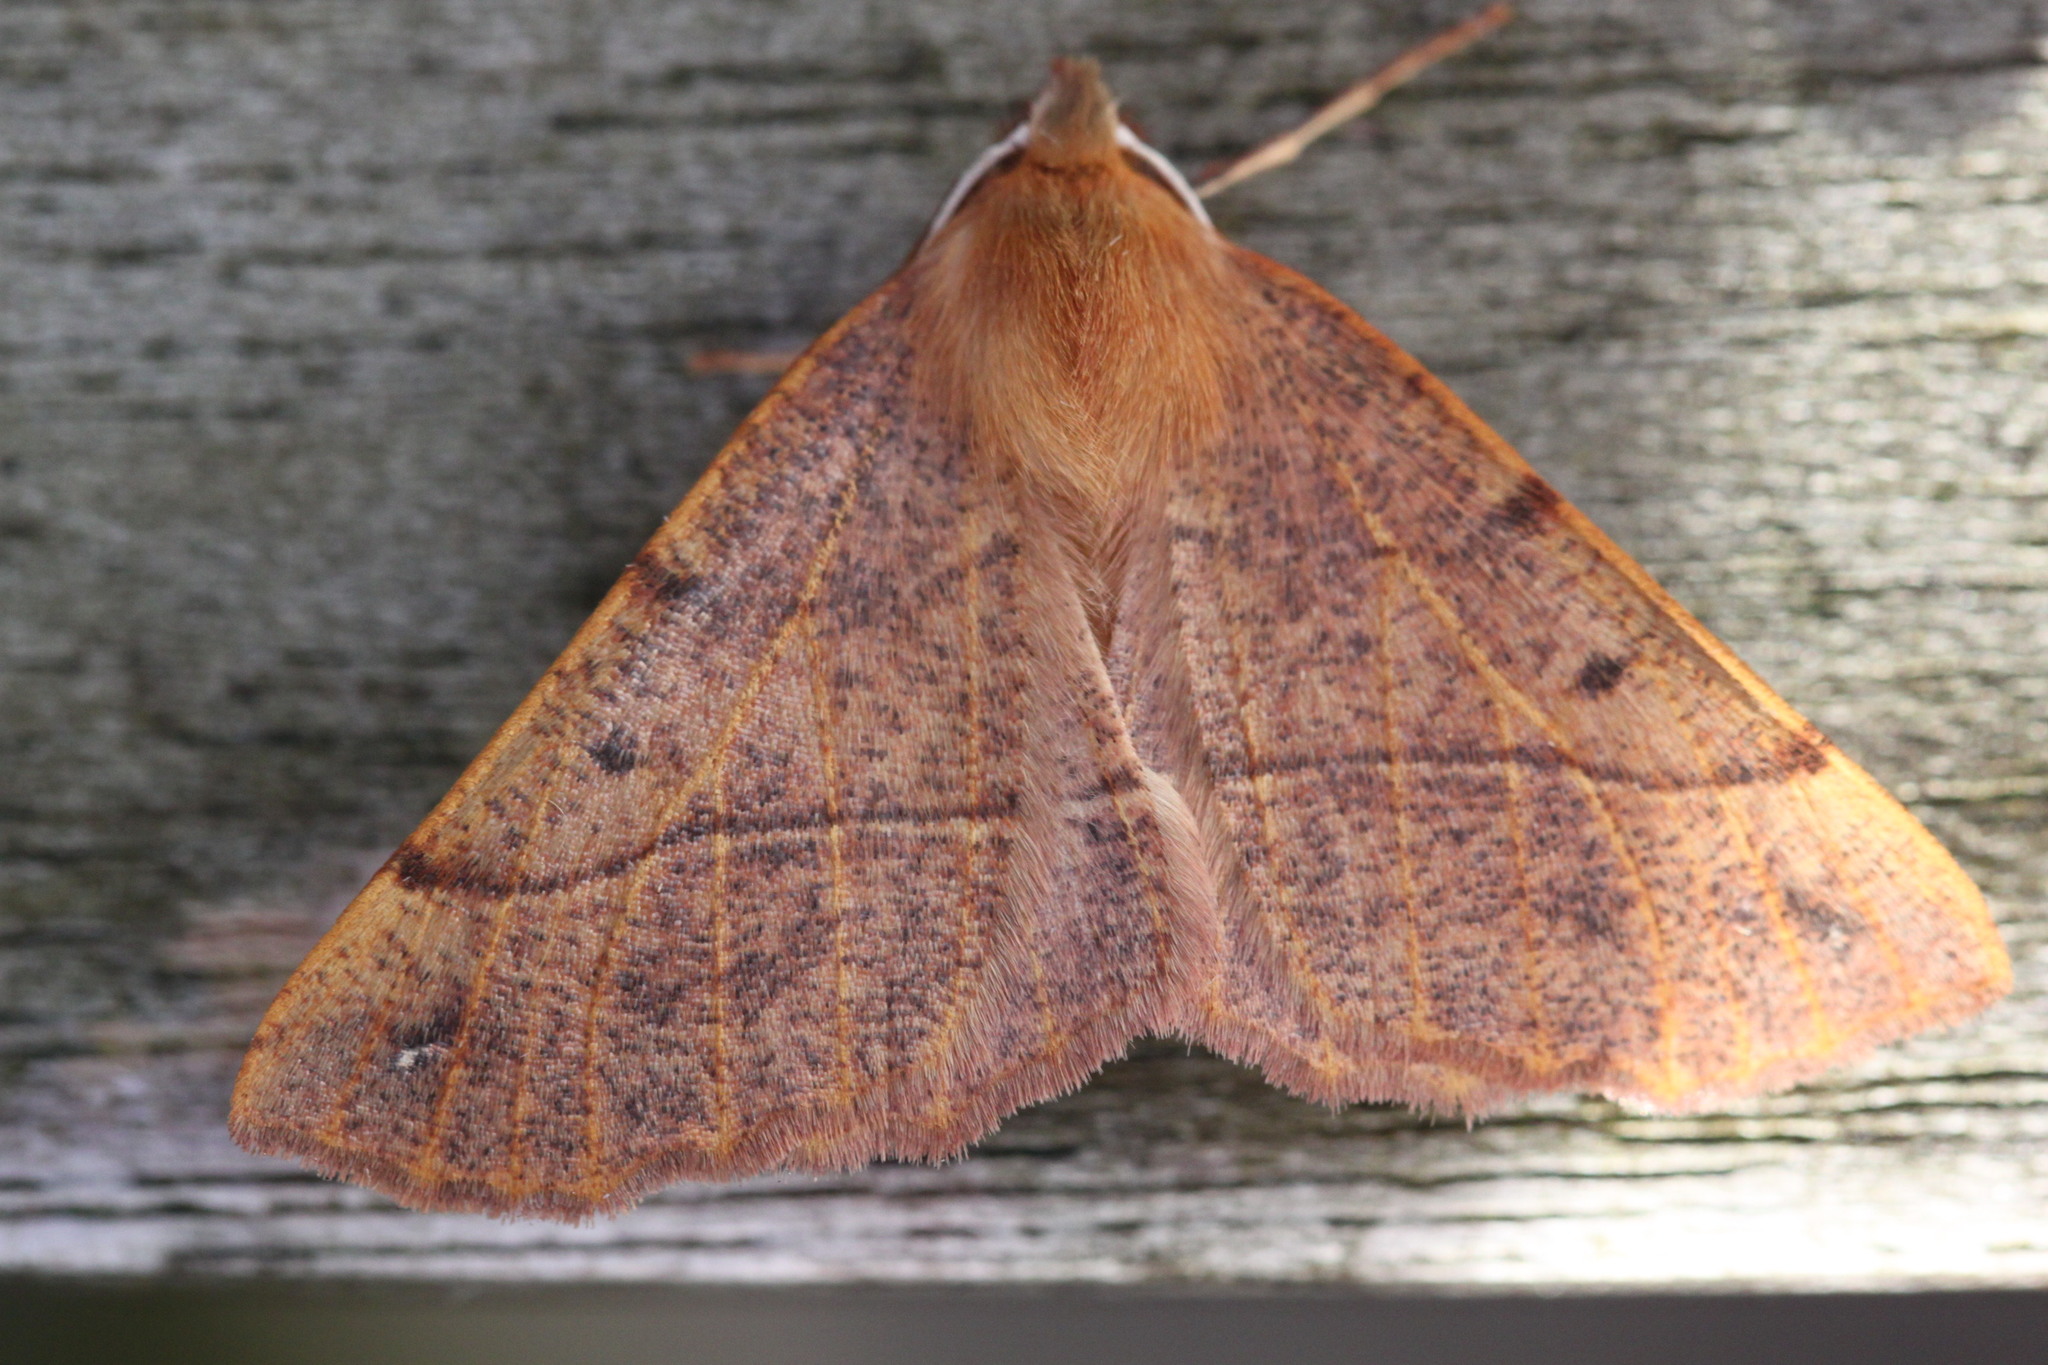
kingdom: Animalia
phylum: Arthropoda
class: Insecta
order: Lepidoptera
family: Geometridae
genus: Colotois
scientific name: Colotois pennaria
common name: Feathered thorn
